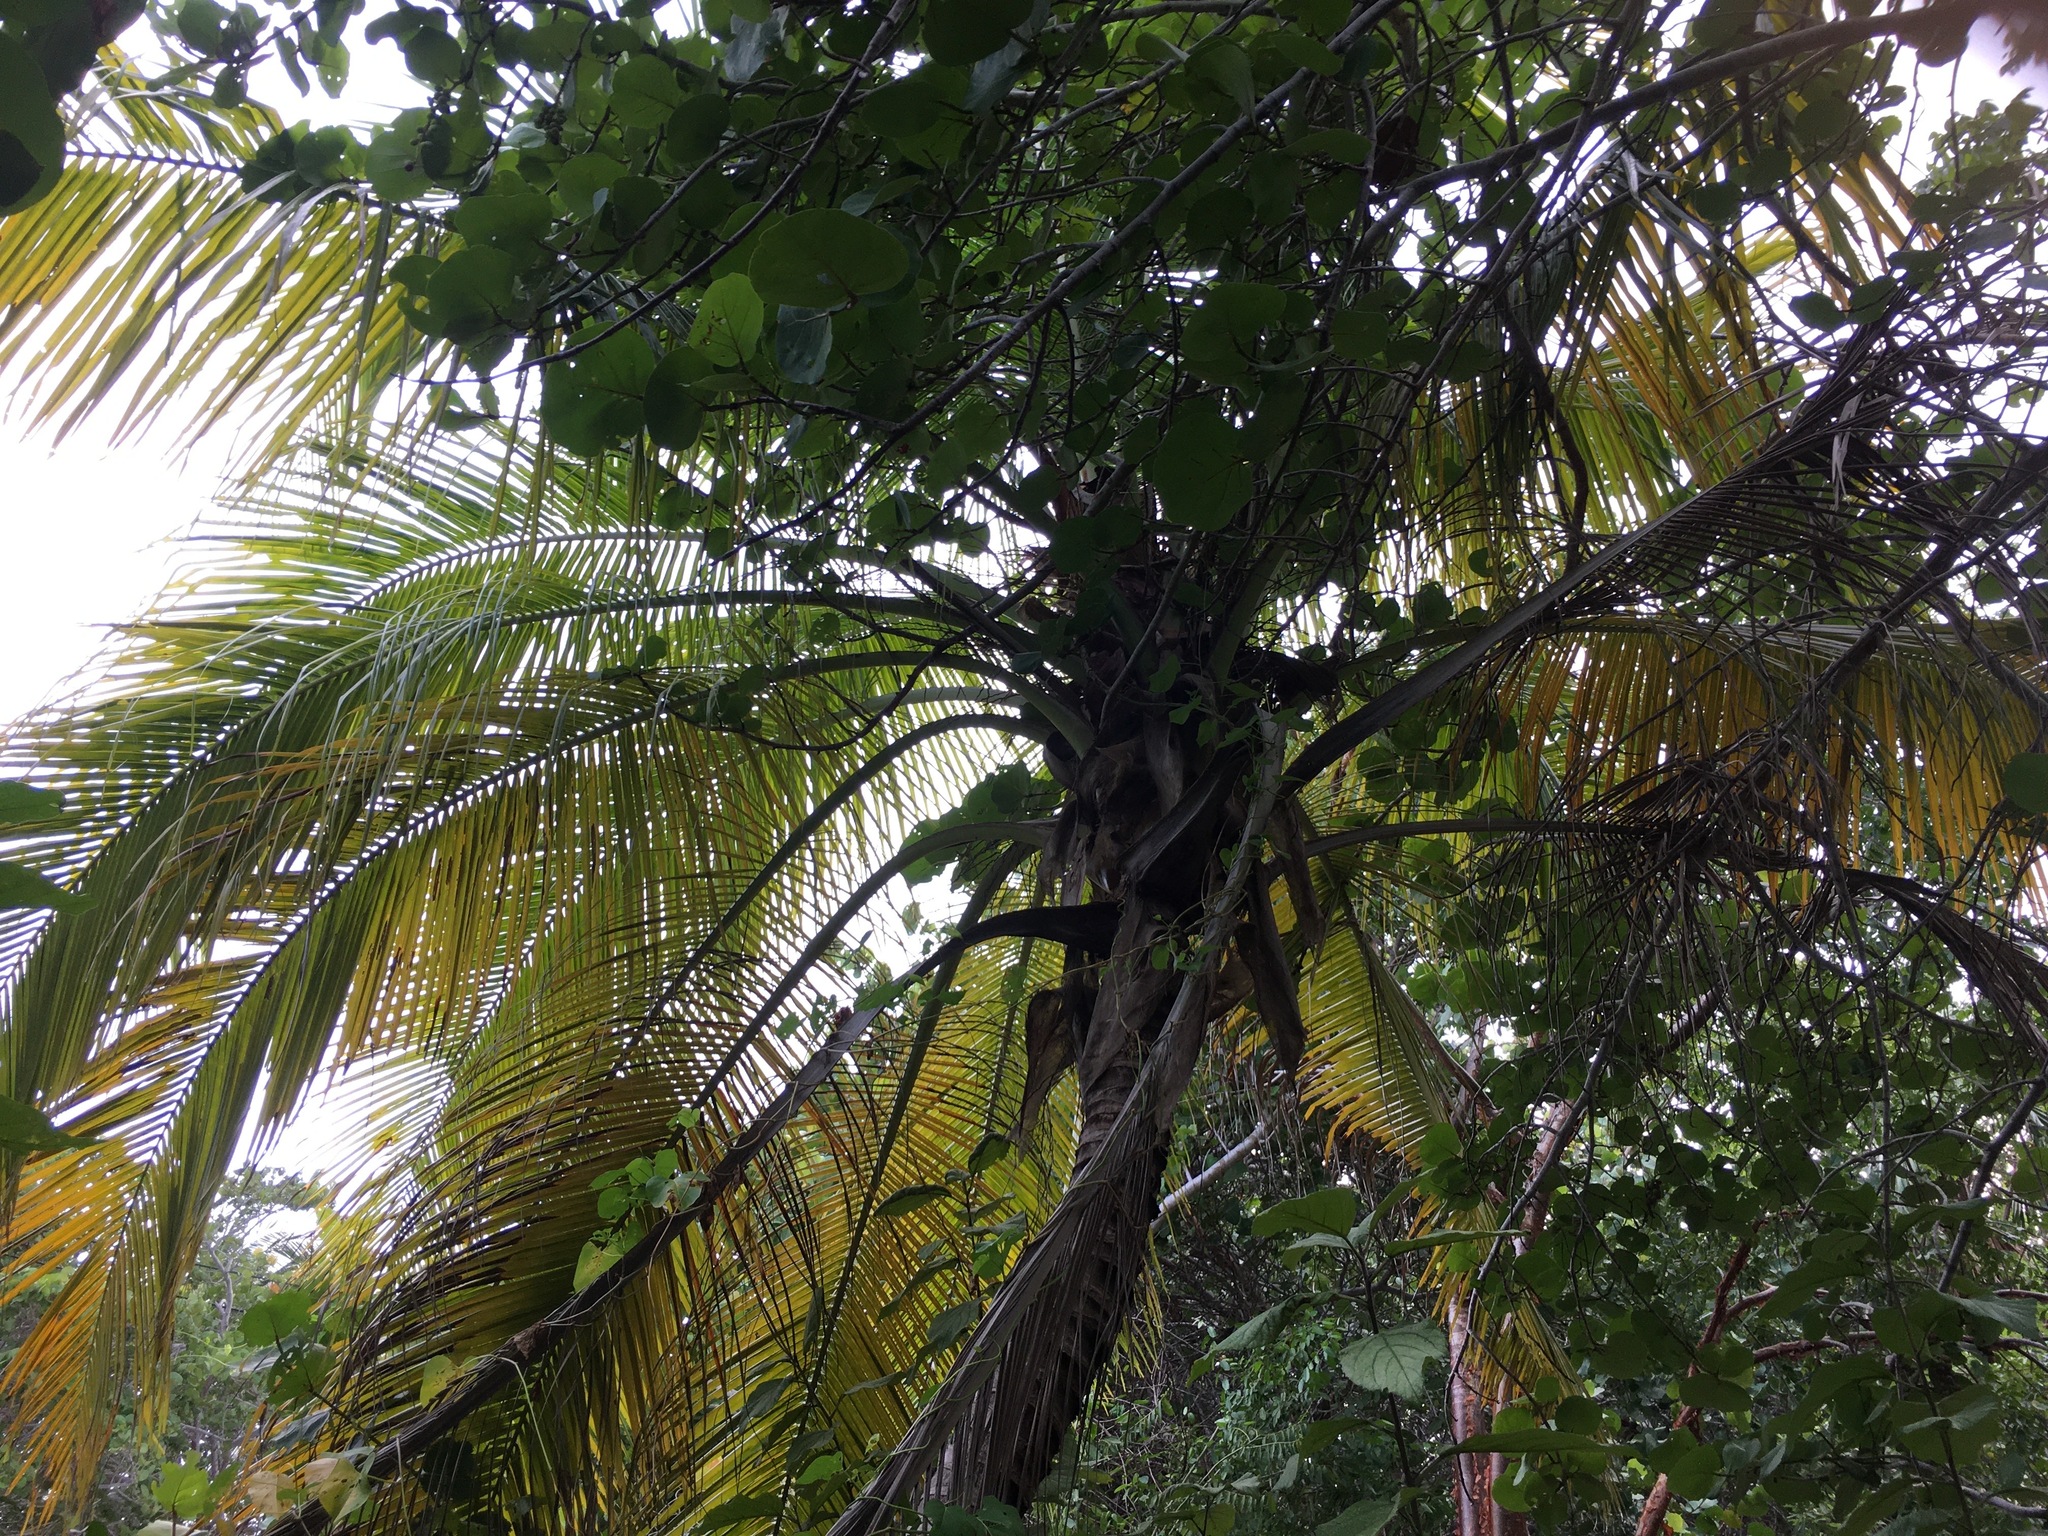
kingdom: Plantae
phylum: Tracheophyta
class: Liliopsida
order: Arecales
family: Arecaceae
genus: Cocos
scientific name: Cocos nucifera
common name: Coconut palm
